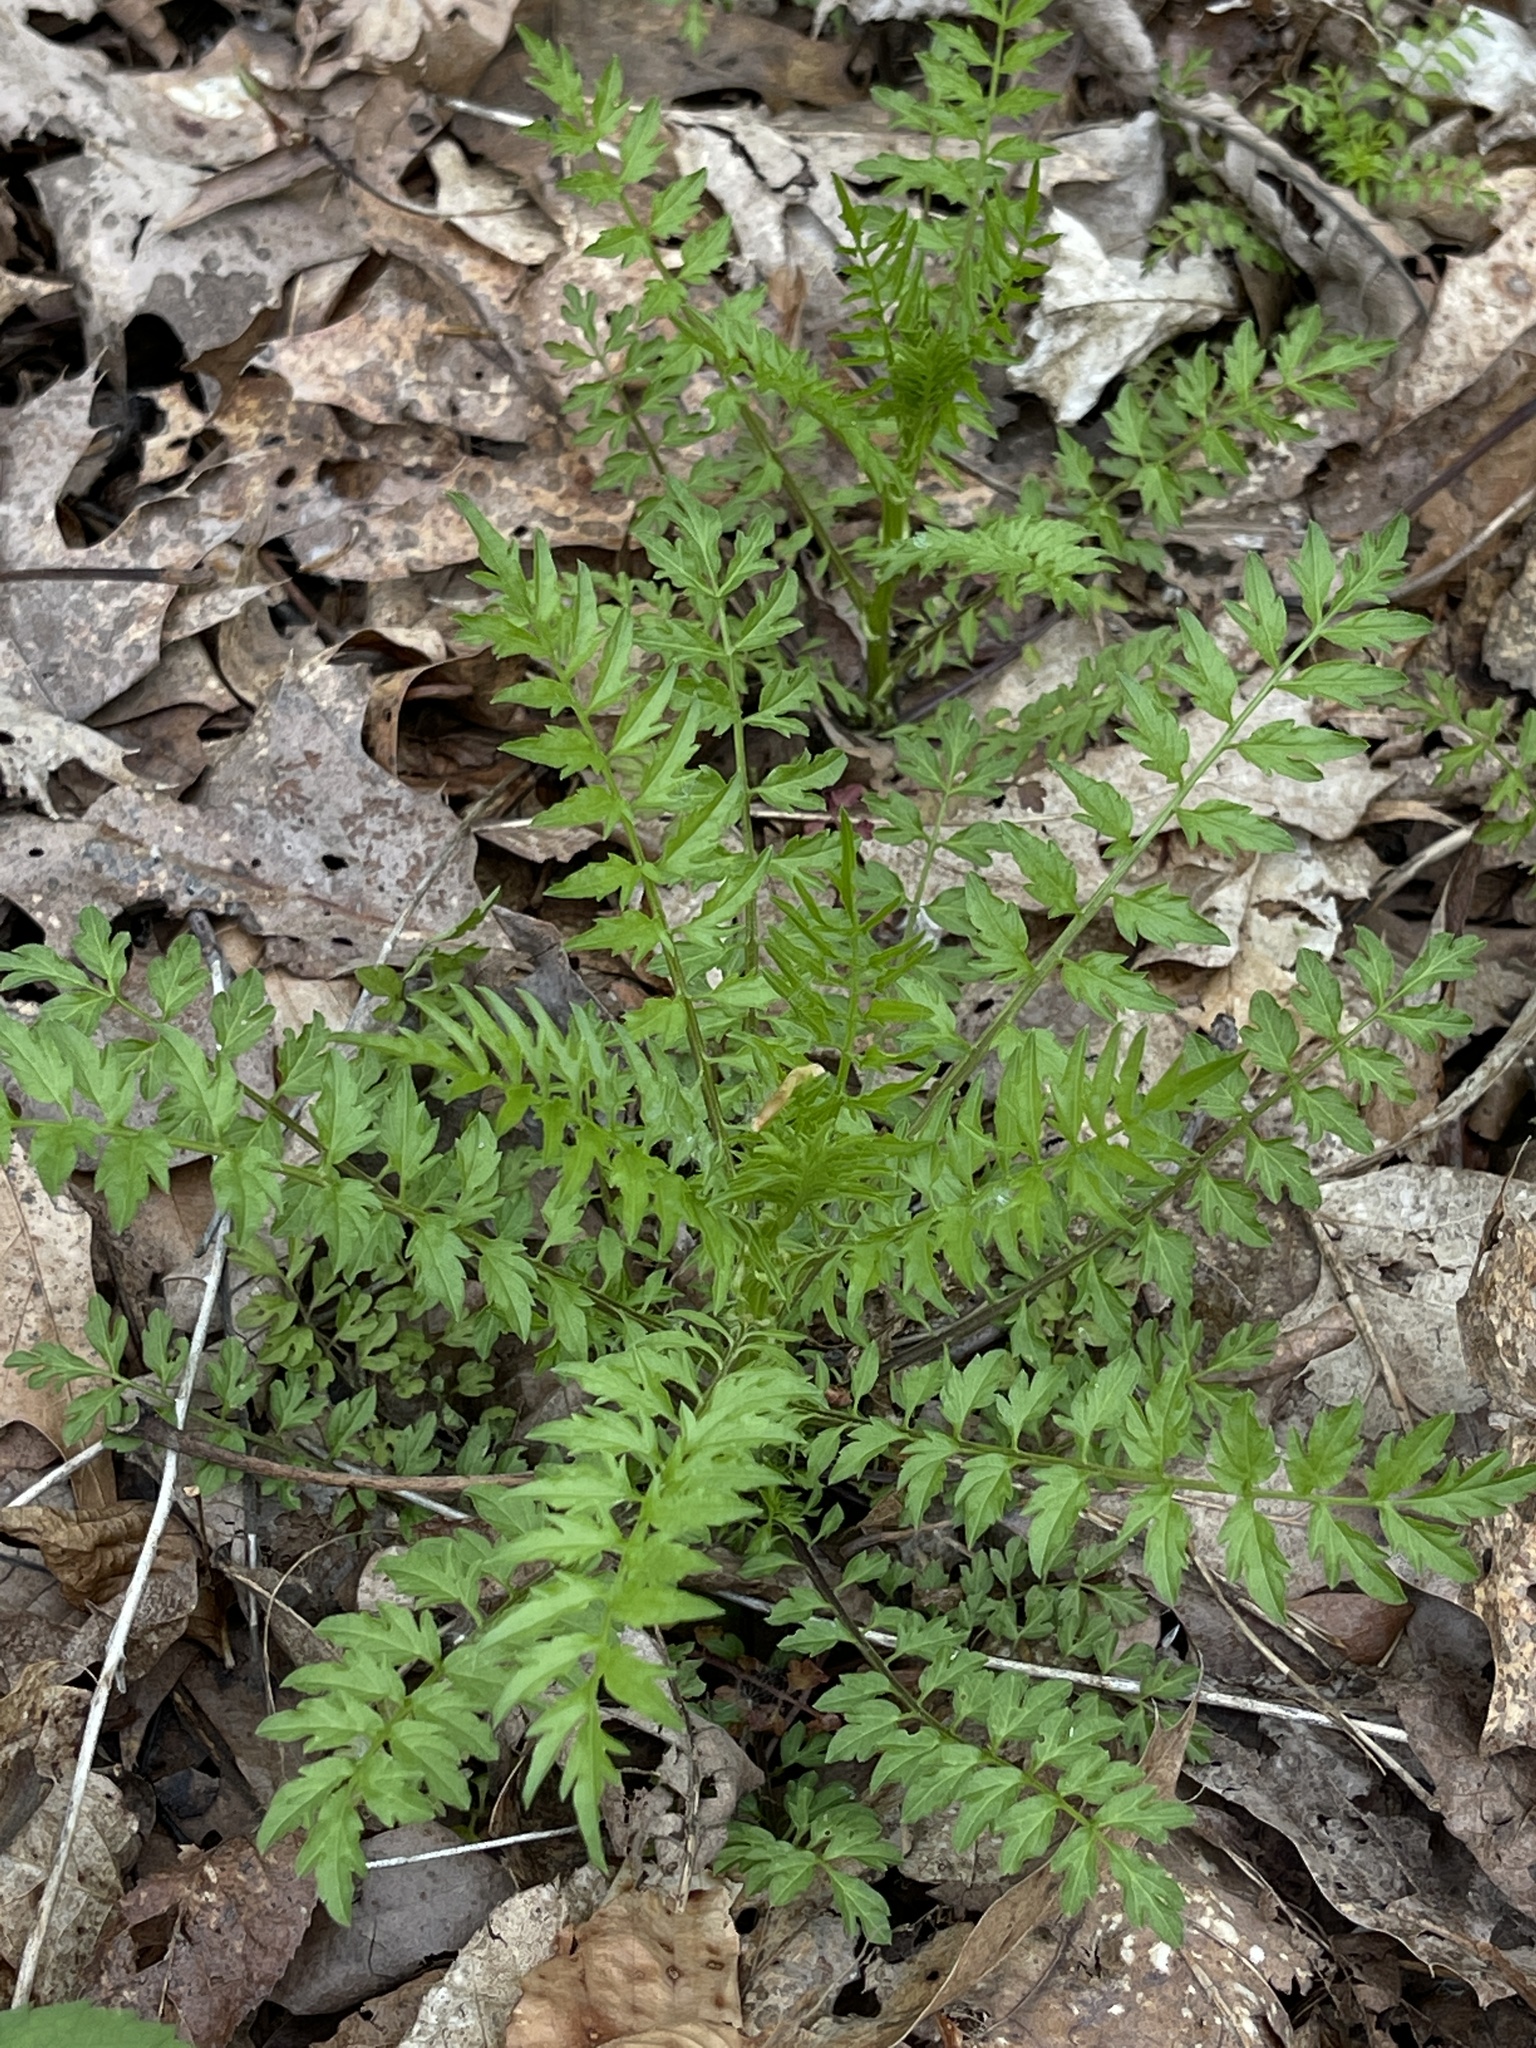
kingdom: Plantae
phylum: Tracheophyta
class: Magnoliopsida
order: Brassicales
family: Brassicaceae
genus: Cardamine
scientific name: Cardamine impatiens
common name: Narrow-leaved bitter-cress
